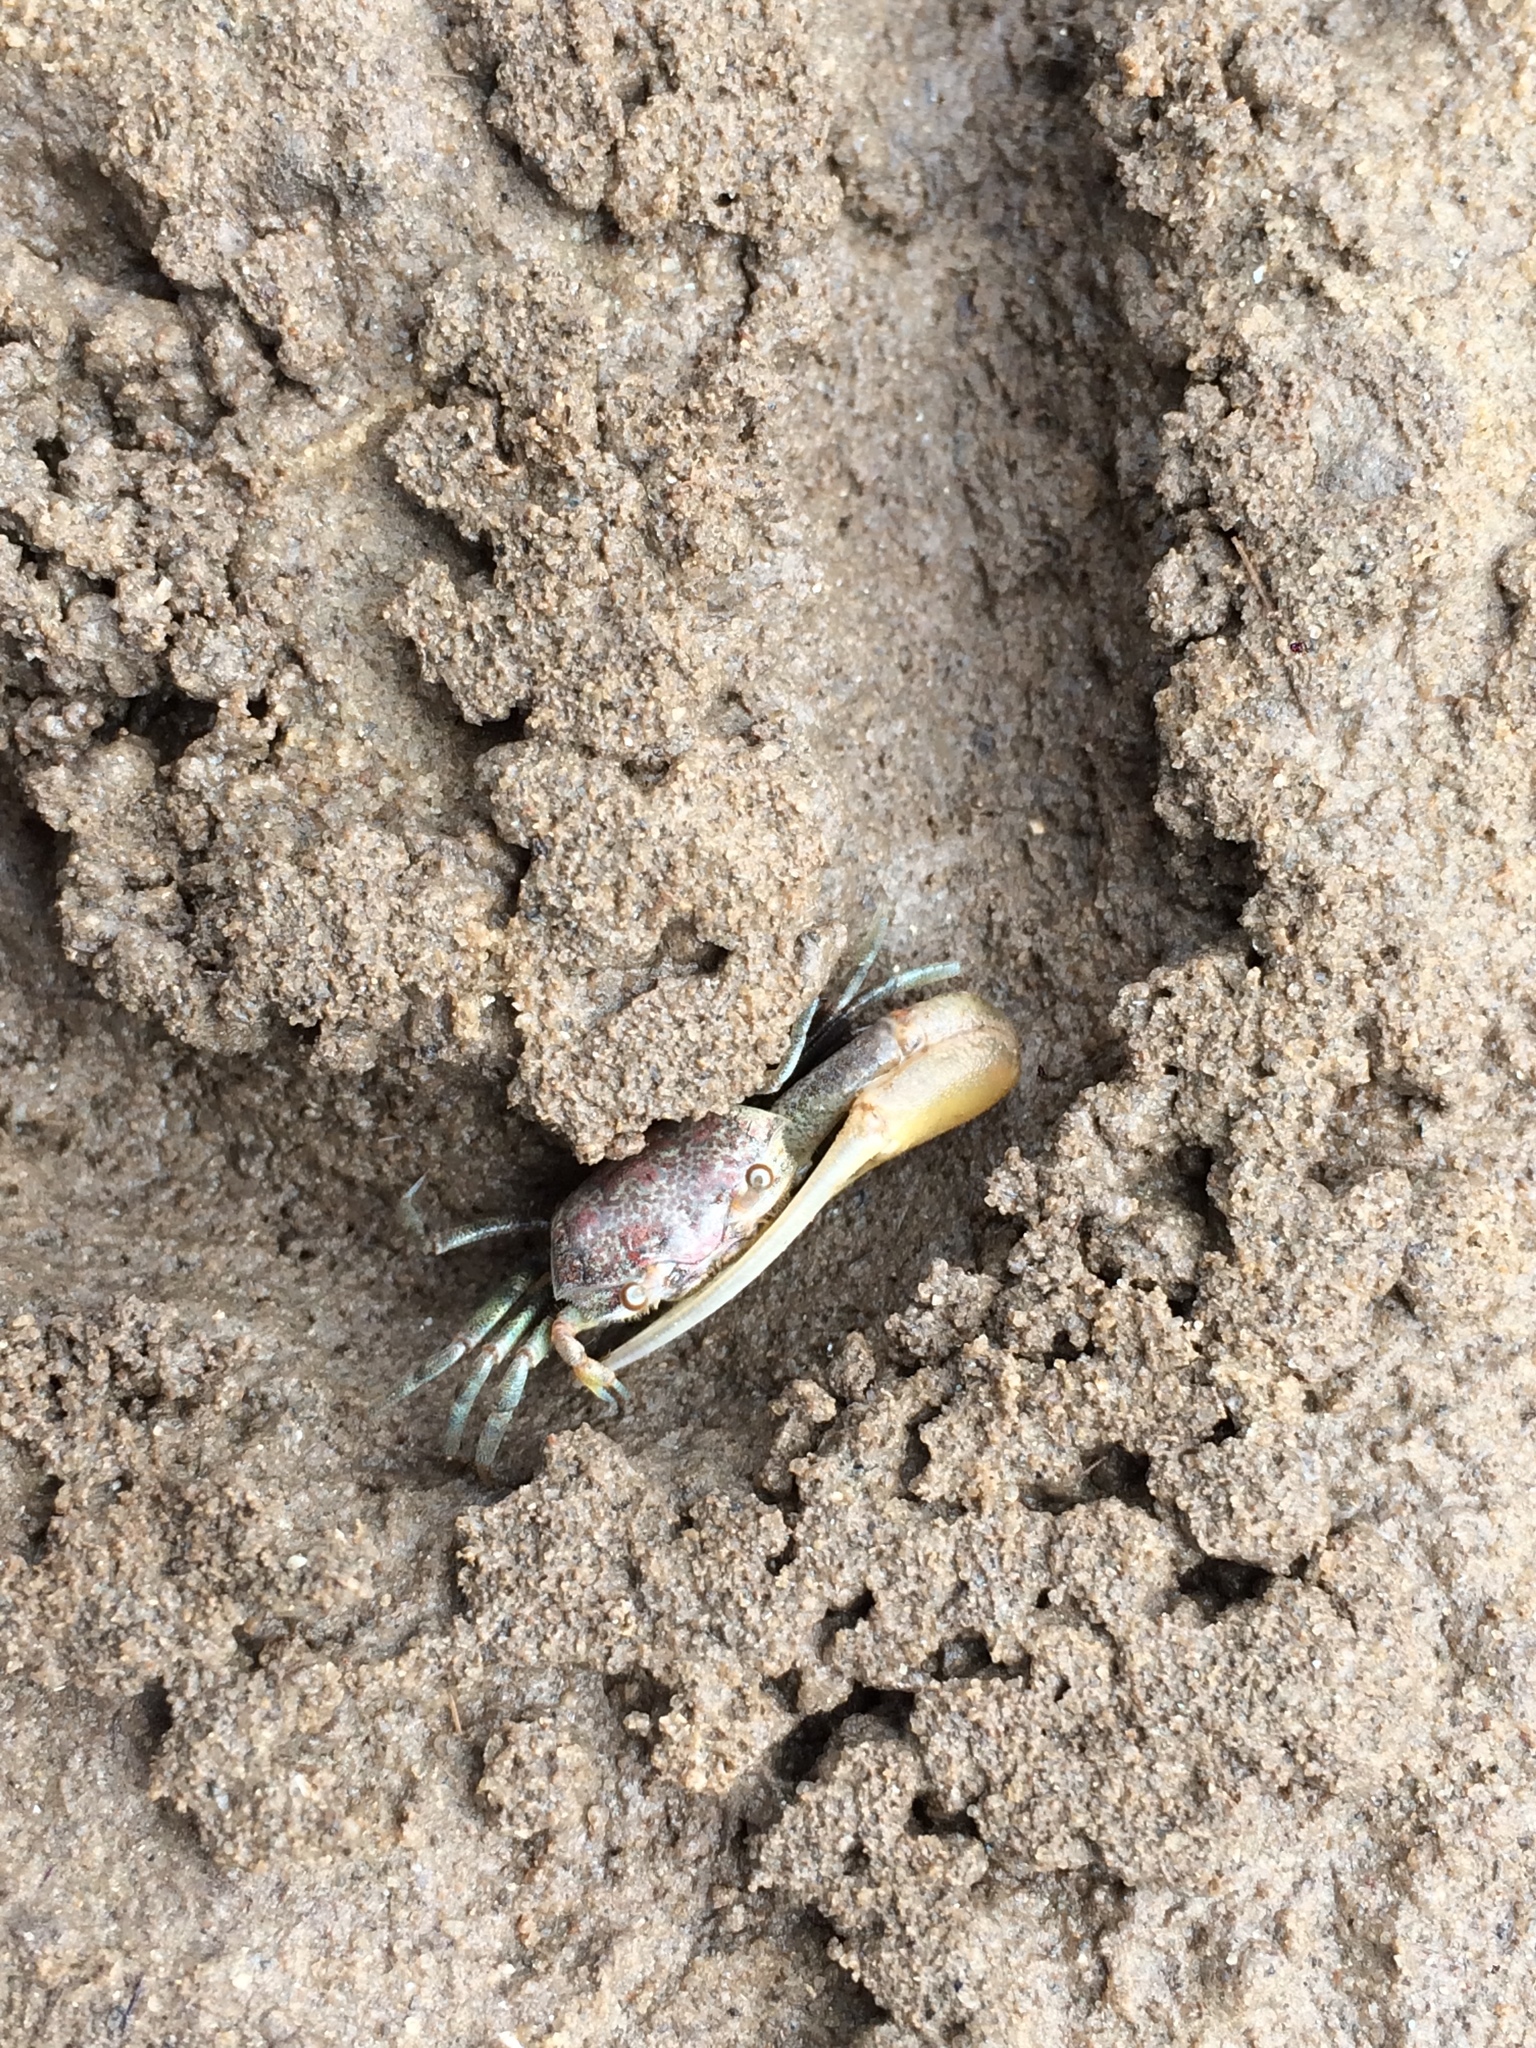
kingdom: Animalia
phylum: Arthropoda
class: Malacostraca
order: Decapoda
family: Ocypodidae
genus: Leptuca
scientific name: Leptuca leptodactyla
